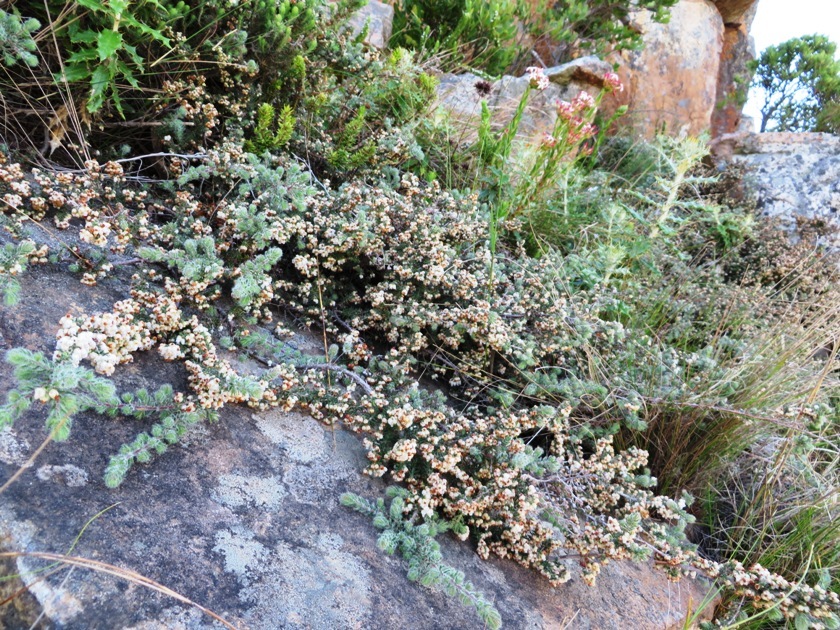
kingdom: Plantae
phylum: Tracheophyta
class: Magnoliopsida
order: Ericales
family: Ericaceae
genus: Erica
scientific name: Erica totta
